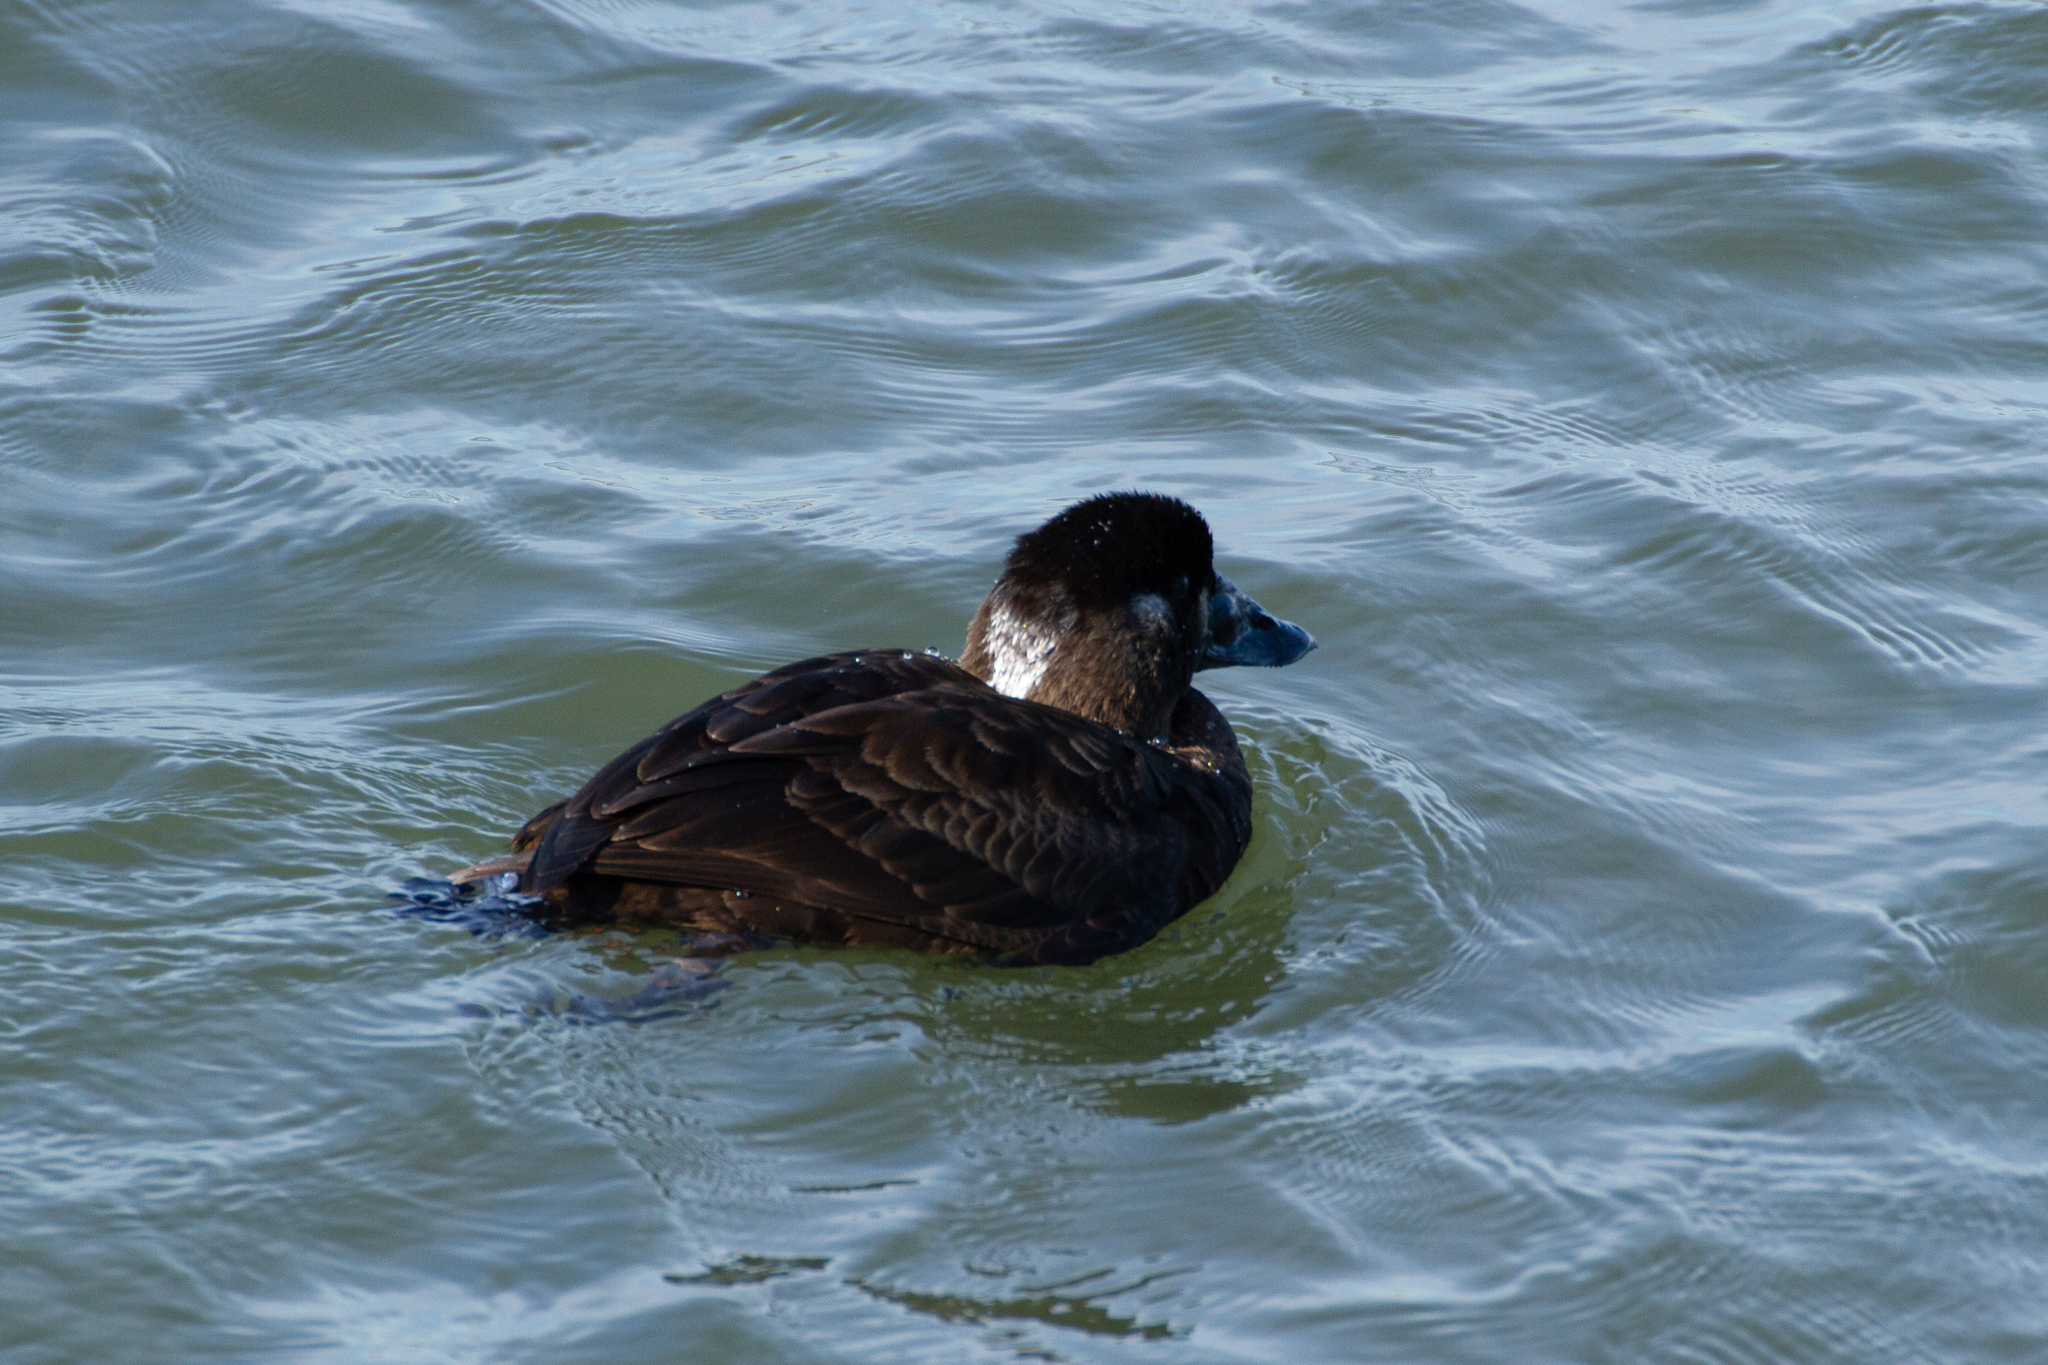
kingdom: Animalia
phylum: Chordata
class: Aves
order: Anseriformes
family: Anatidae
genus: Melanitta
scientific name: Melanitta perspicillata
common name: Surf scoter
